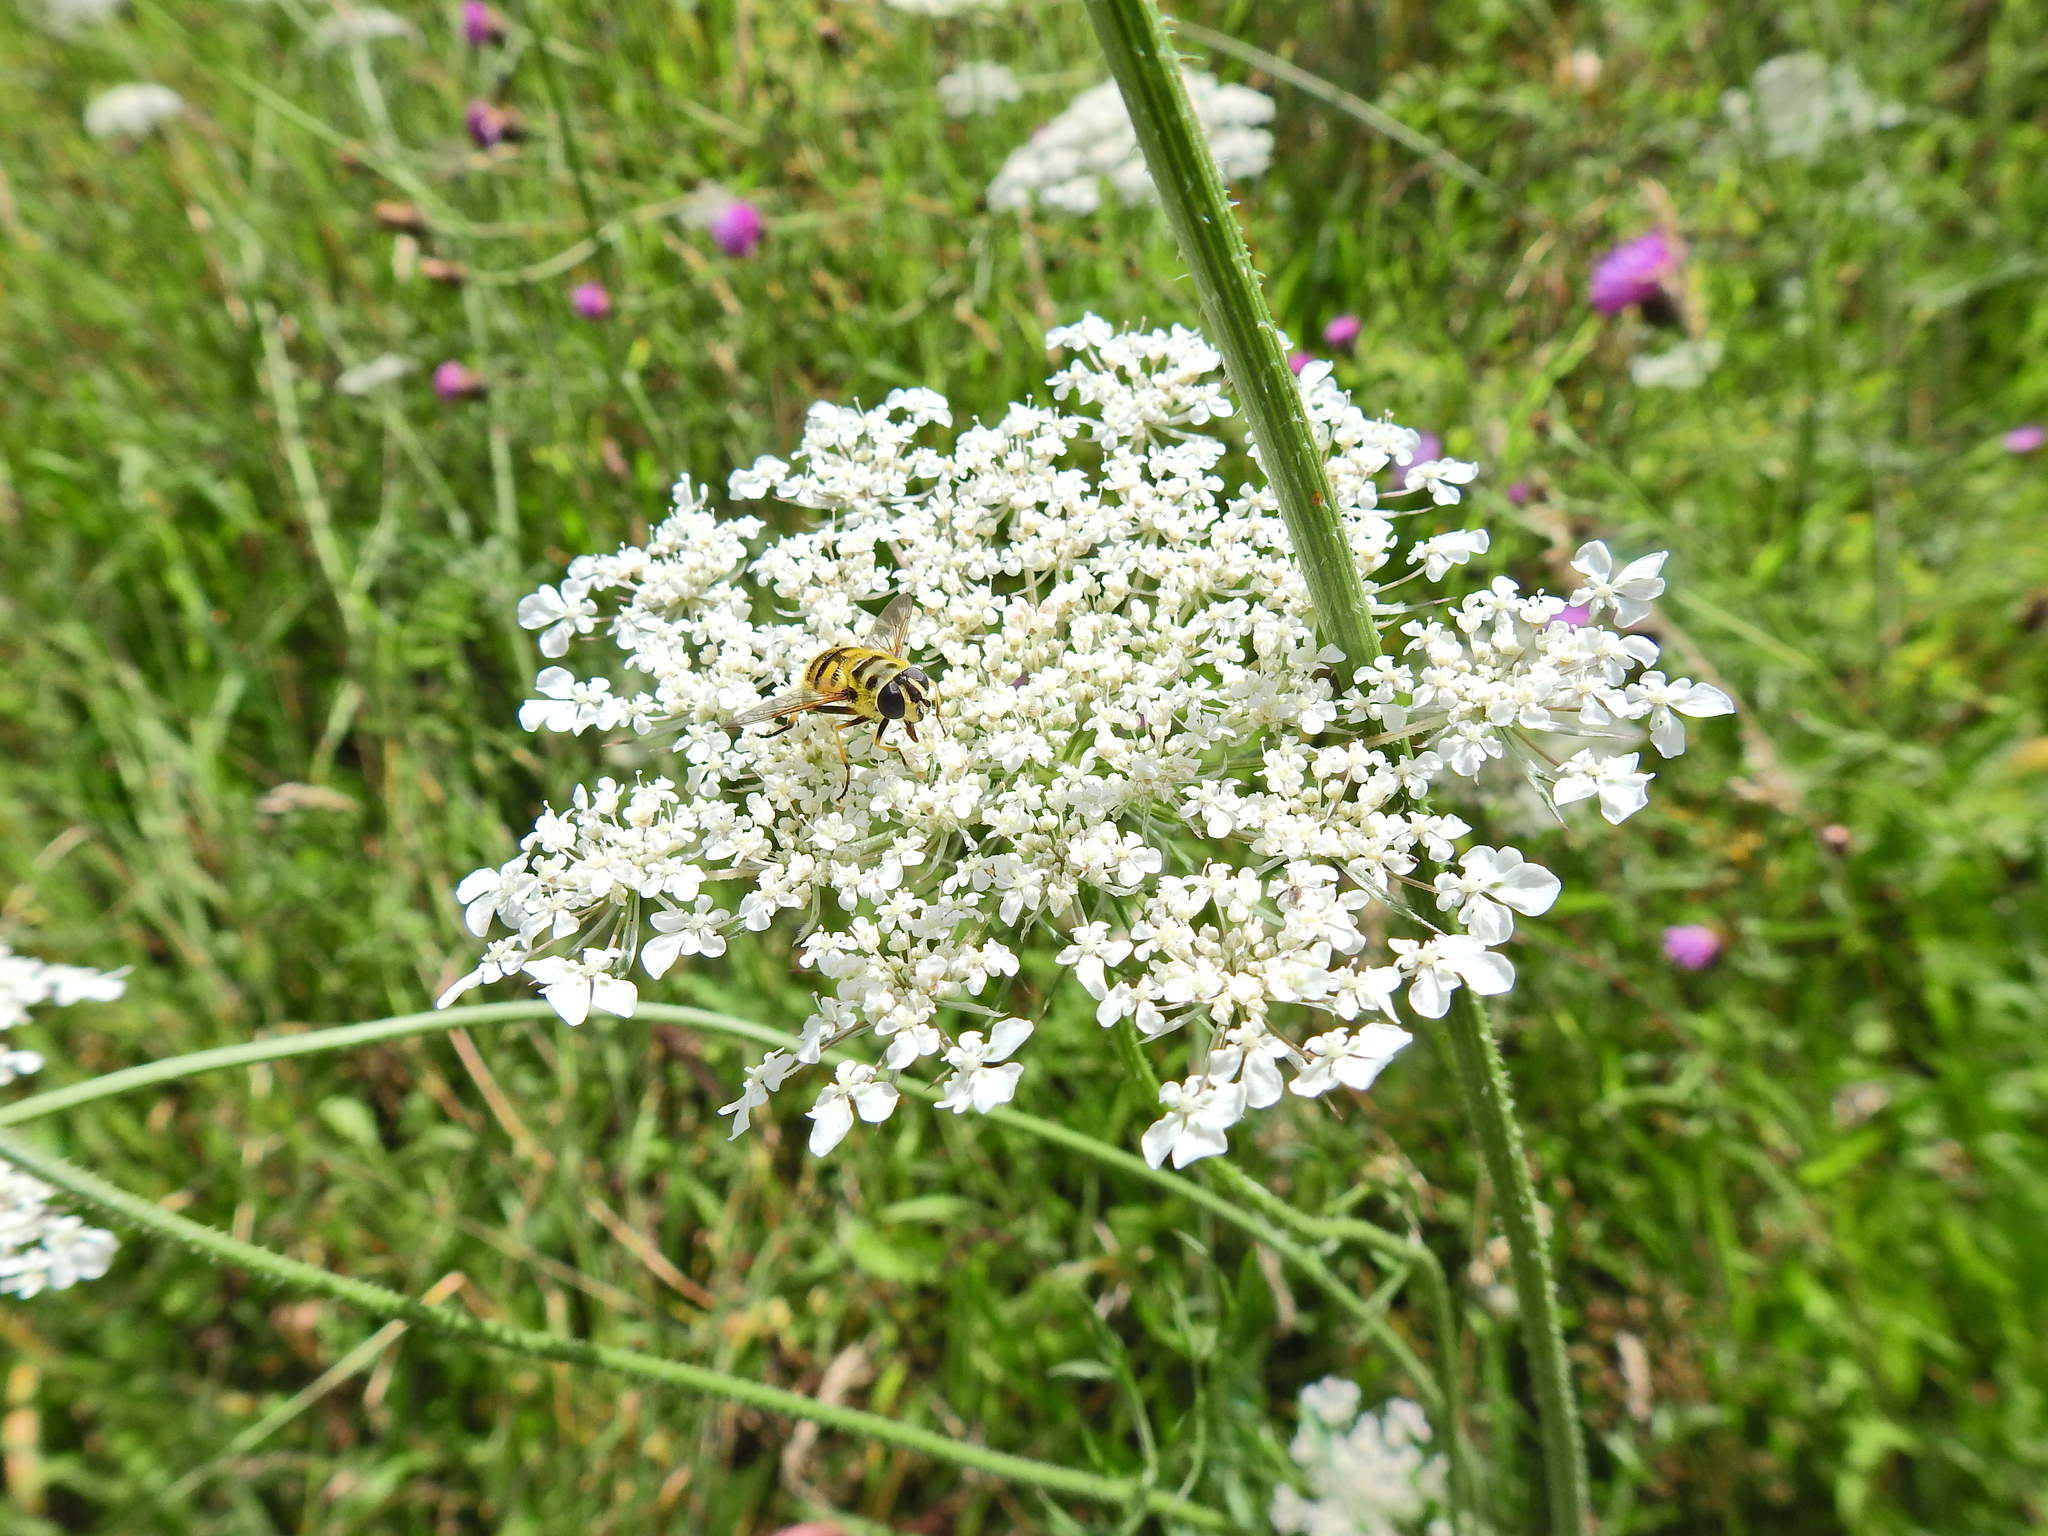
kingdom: Animalia
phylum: Arthropoda
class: Insecta
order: Diptera
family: Syrphidae
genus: Myathropa
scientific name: Myathropa florea
